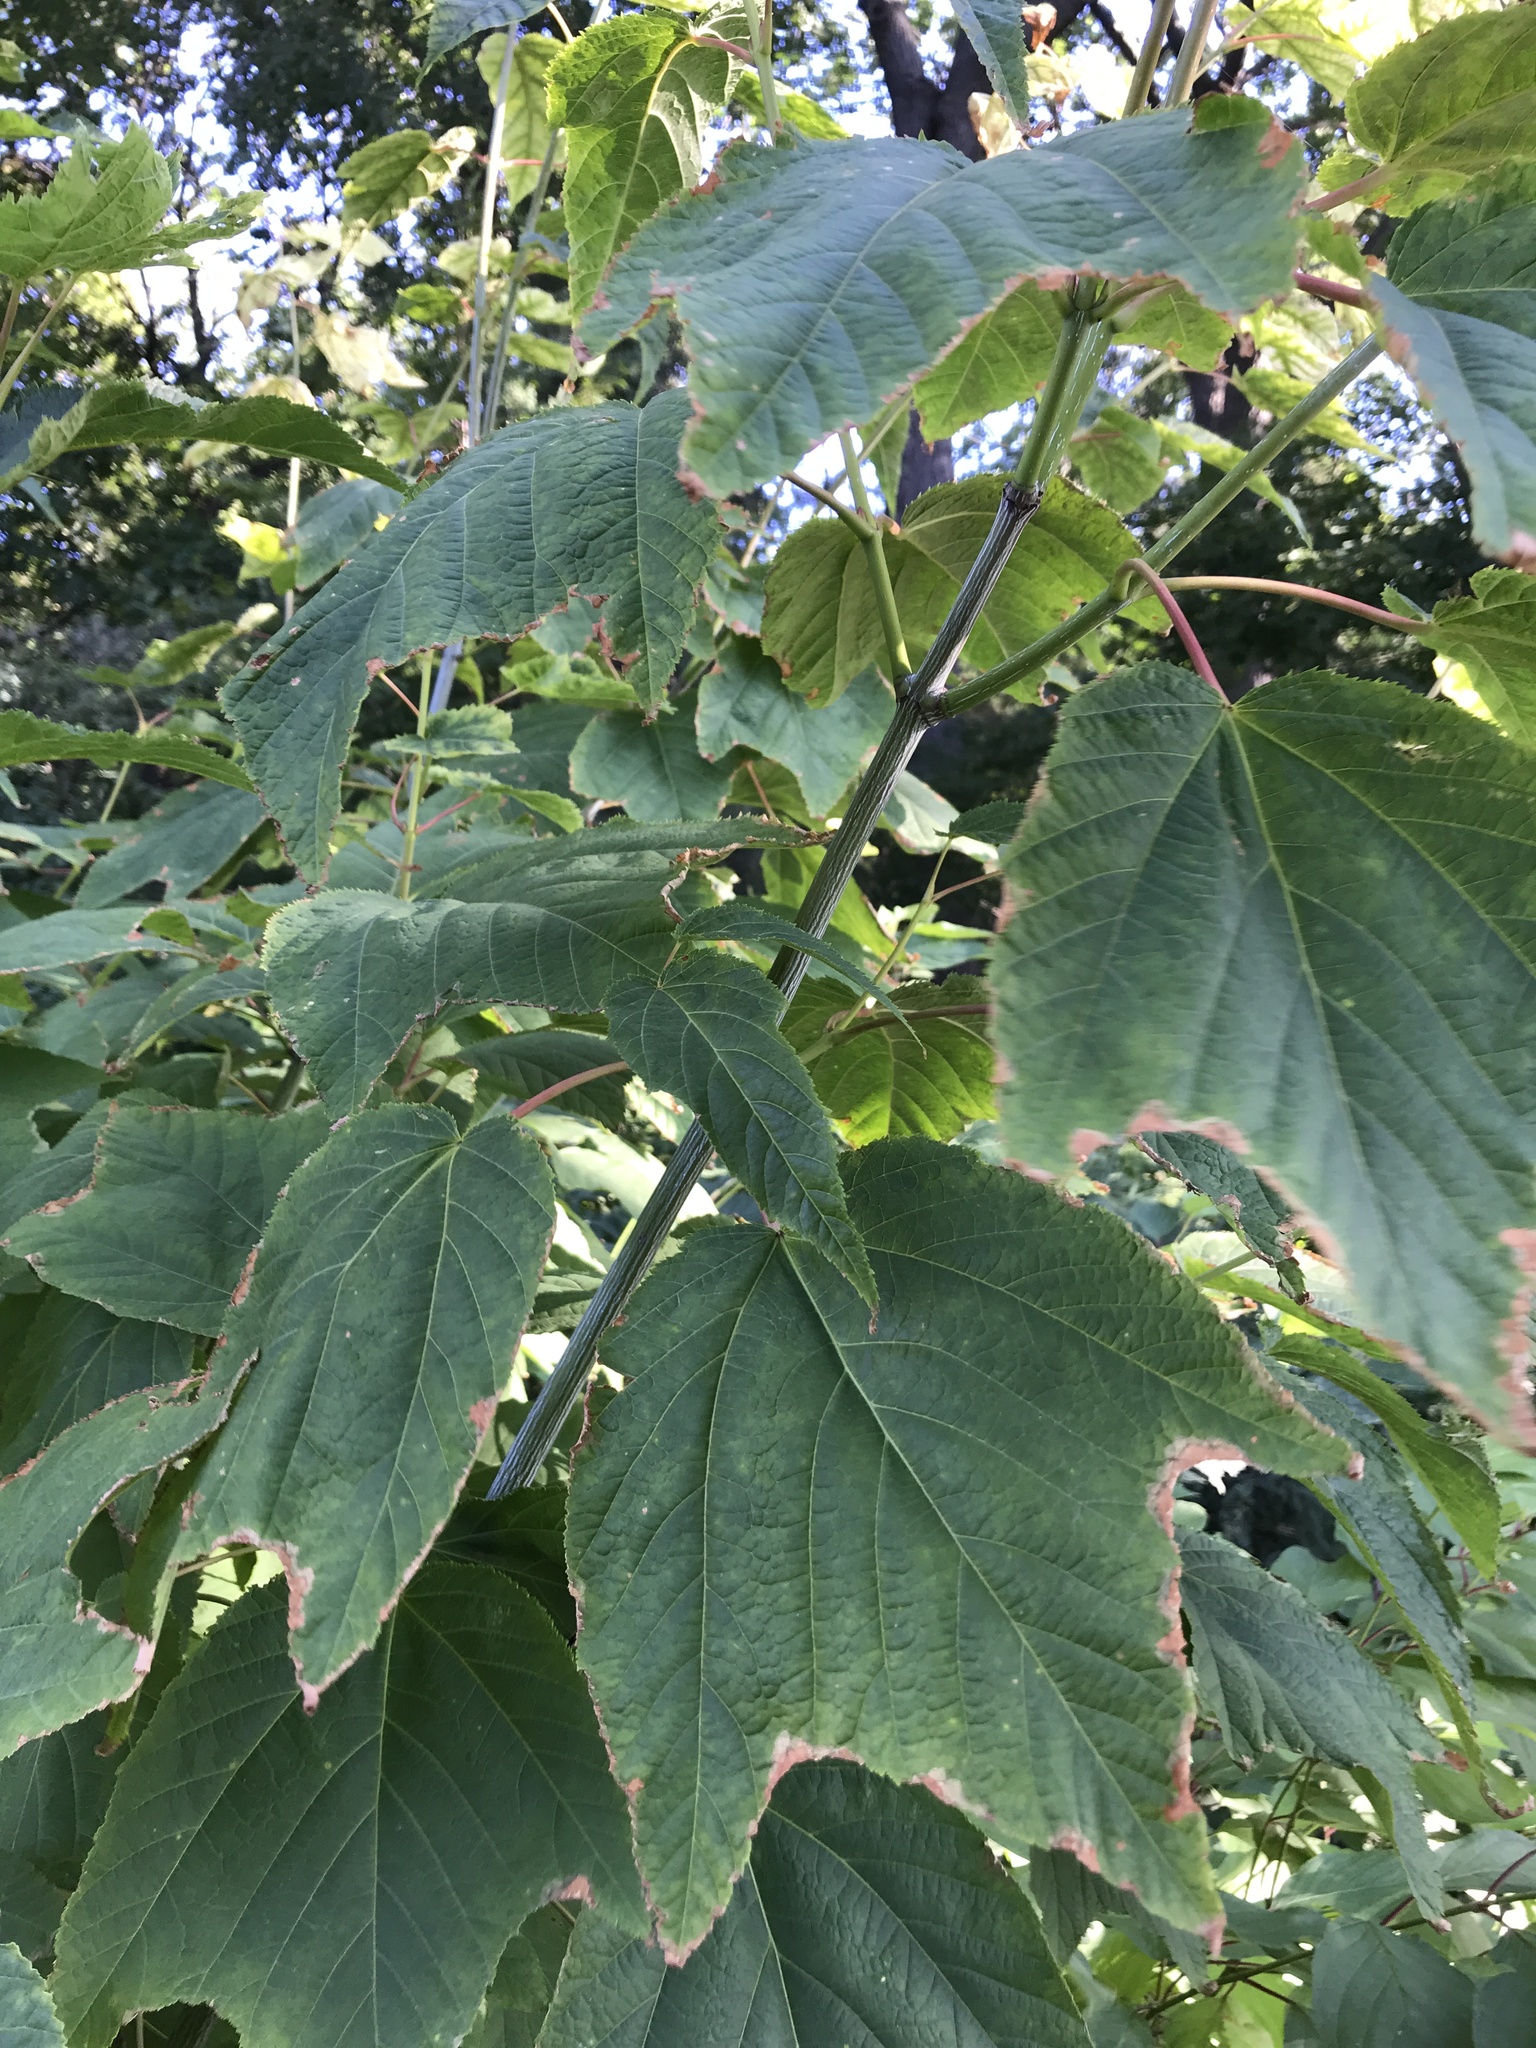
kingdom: Plantae
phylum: Tracheophyta
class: Magnoliopsida
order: Sapindales
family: Sapindaceae
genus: Acer
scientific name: Acer pensylvanicum
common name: Moosewood
